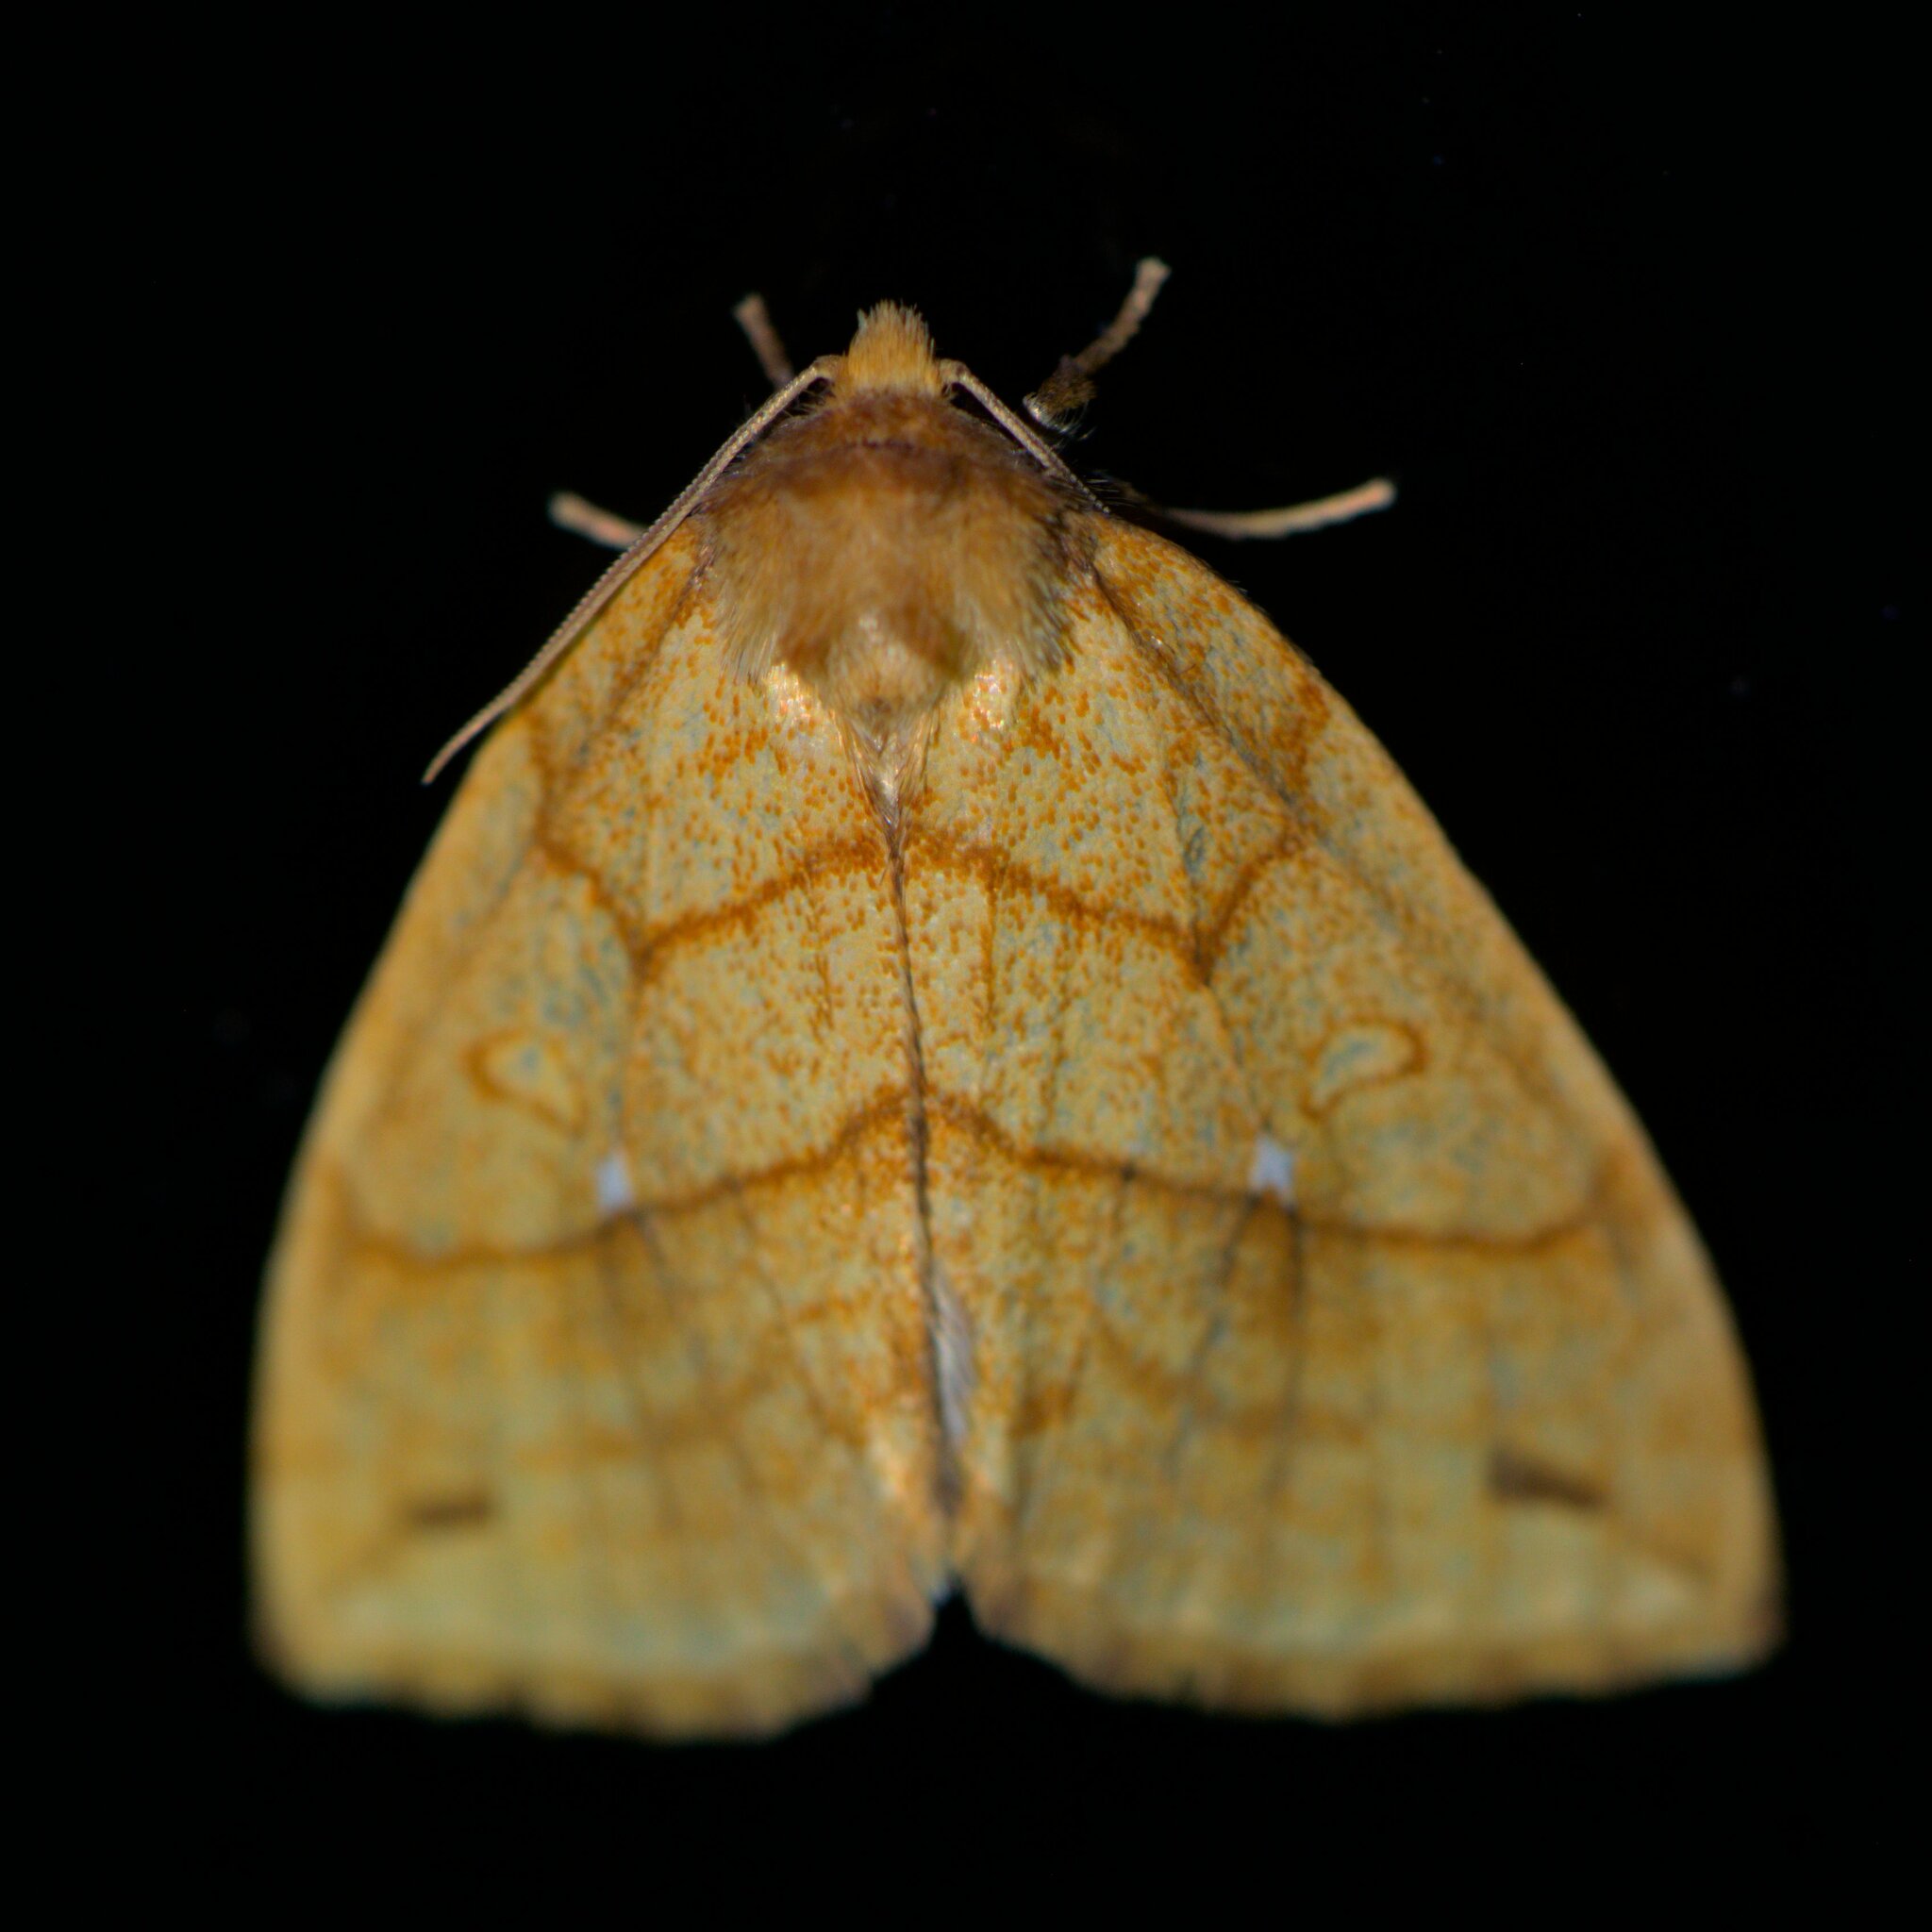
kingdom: Animalia
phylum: Arthropoda
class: Insecta
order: Lepidoptera
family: Noctuidae
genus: Xanthia
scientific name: Xanthia rectilineata
